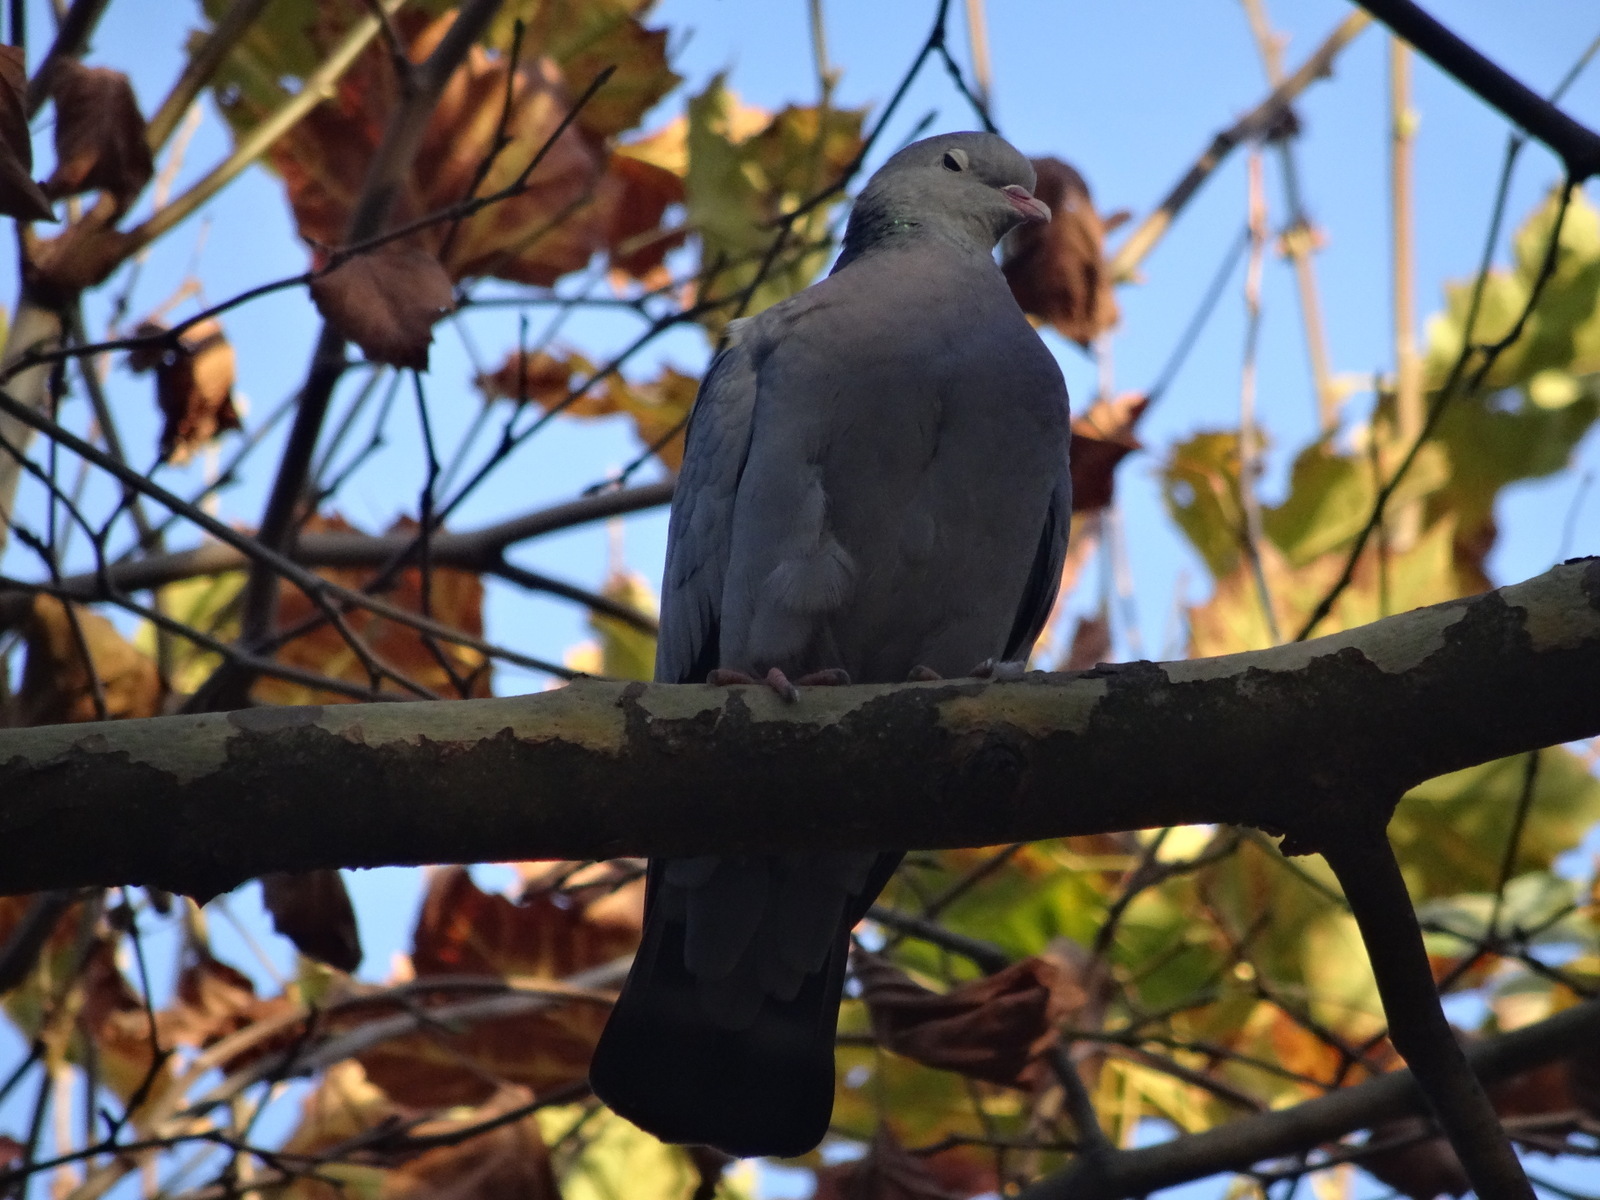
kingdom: Animalia
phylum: Chordata
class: Aves
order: Columbiformes
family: Columbidae
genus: Columba
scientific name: Columba oenas
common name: Stock dove
